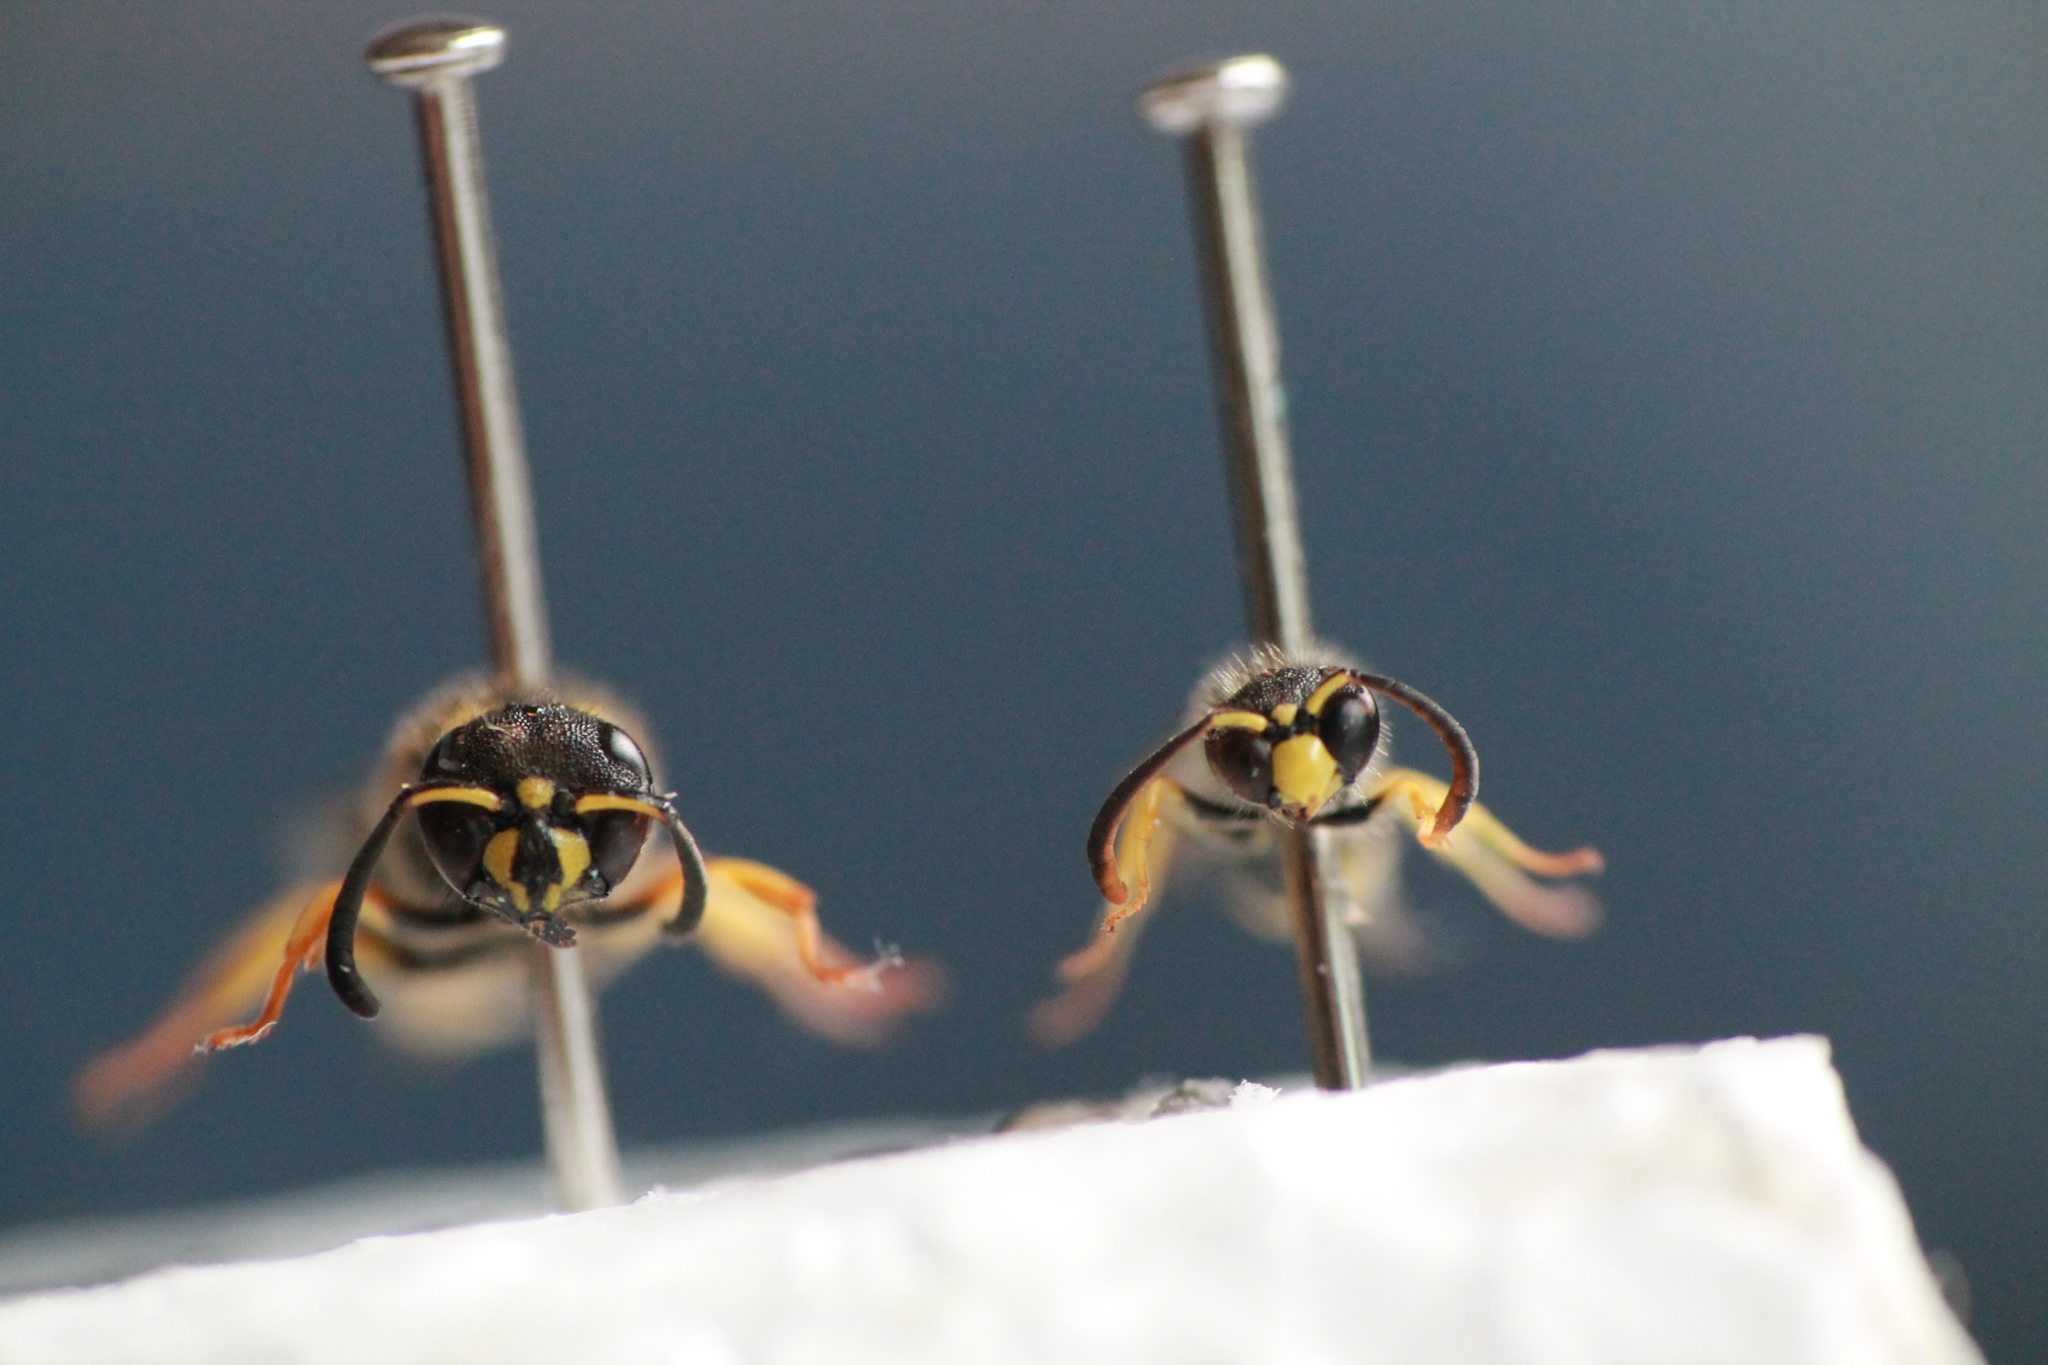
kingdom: Animalia
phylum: Arthropoda
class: Insecta
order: Hymenoptera
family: Vespidae
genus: Ancistrocerus
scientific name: Ancistrocerus gazella
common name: European tube wasp
